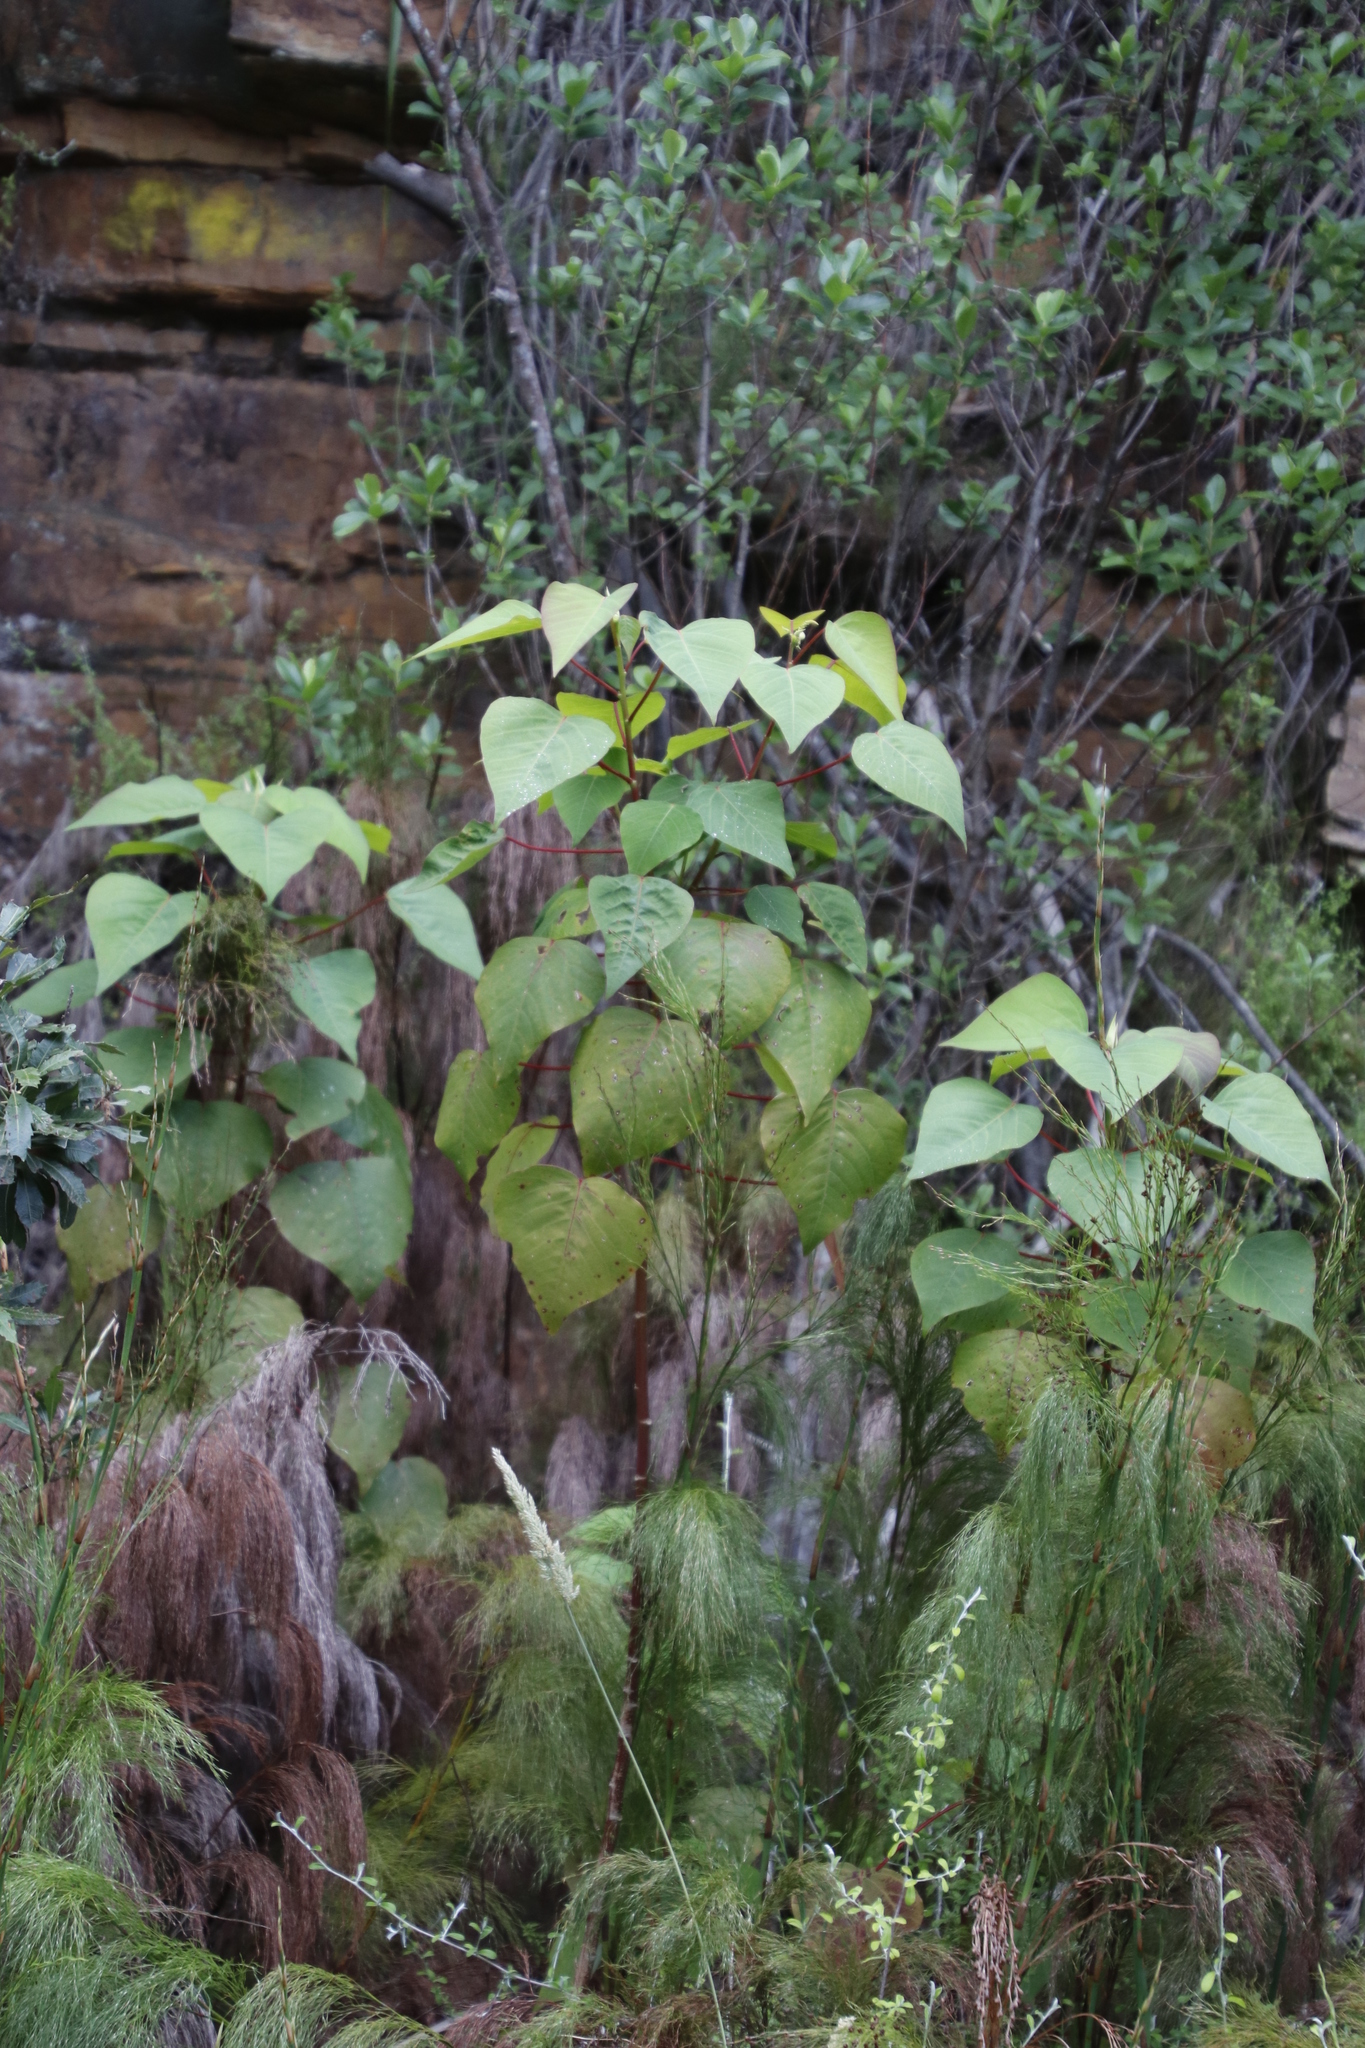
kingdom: Plantae
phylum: Tracheophyta
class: Magnoliopsida
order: Malpighiales
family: Euphorbiaceae
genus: Homalanthus
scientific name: Homalanthus populifolius
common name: Queensland poplar
